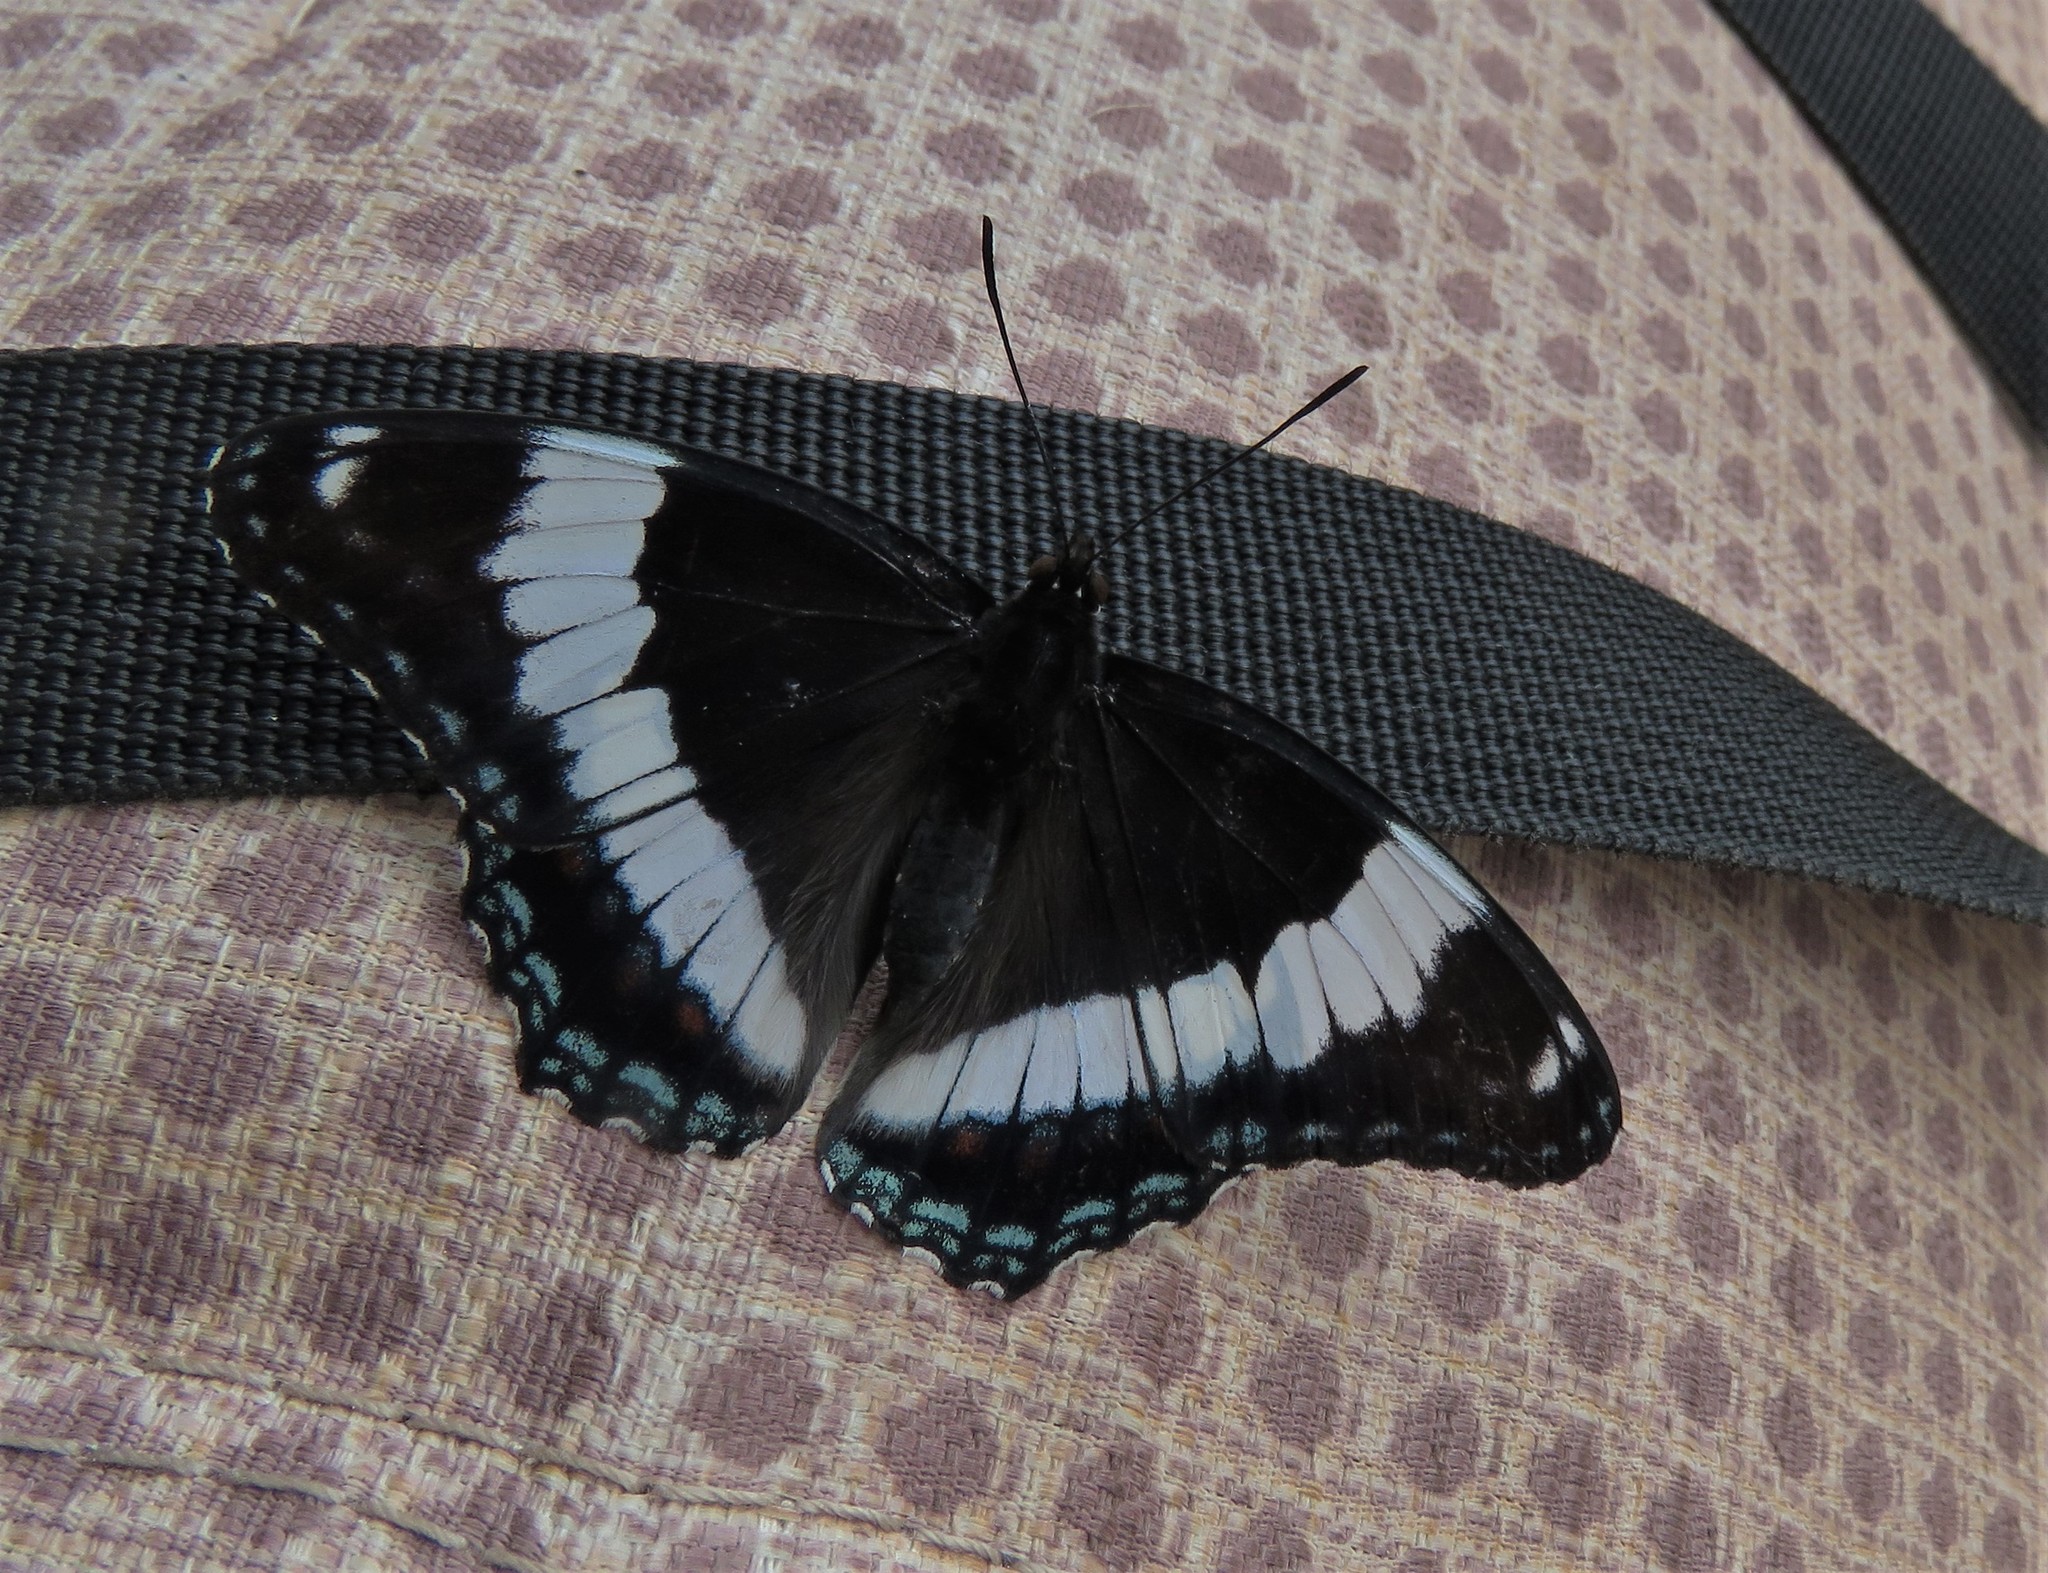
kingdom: Animalia
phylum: Arthropoda
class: Insecta
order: Lepidoptera
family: Nymphalidae
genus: Limenitis
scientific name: Limenitis arthemis
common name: Red-spotted admiral
